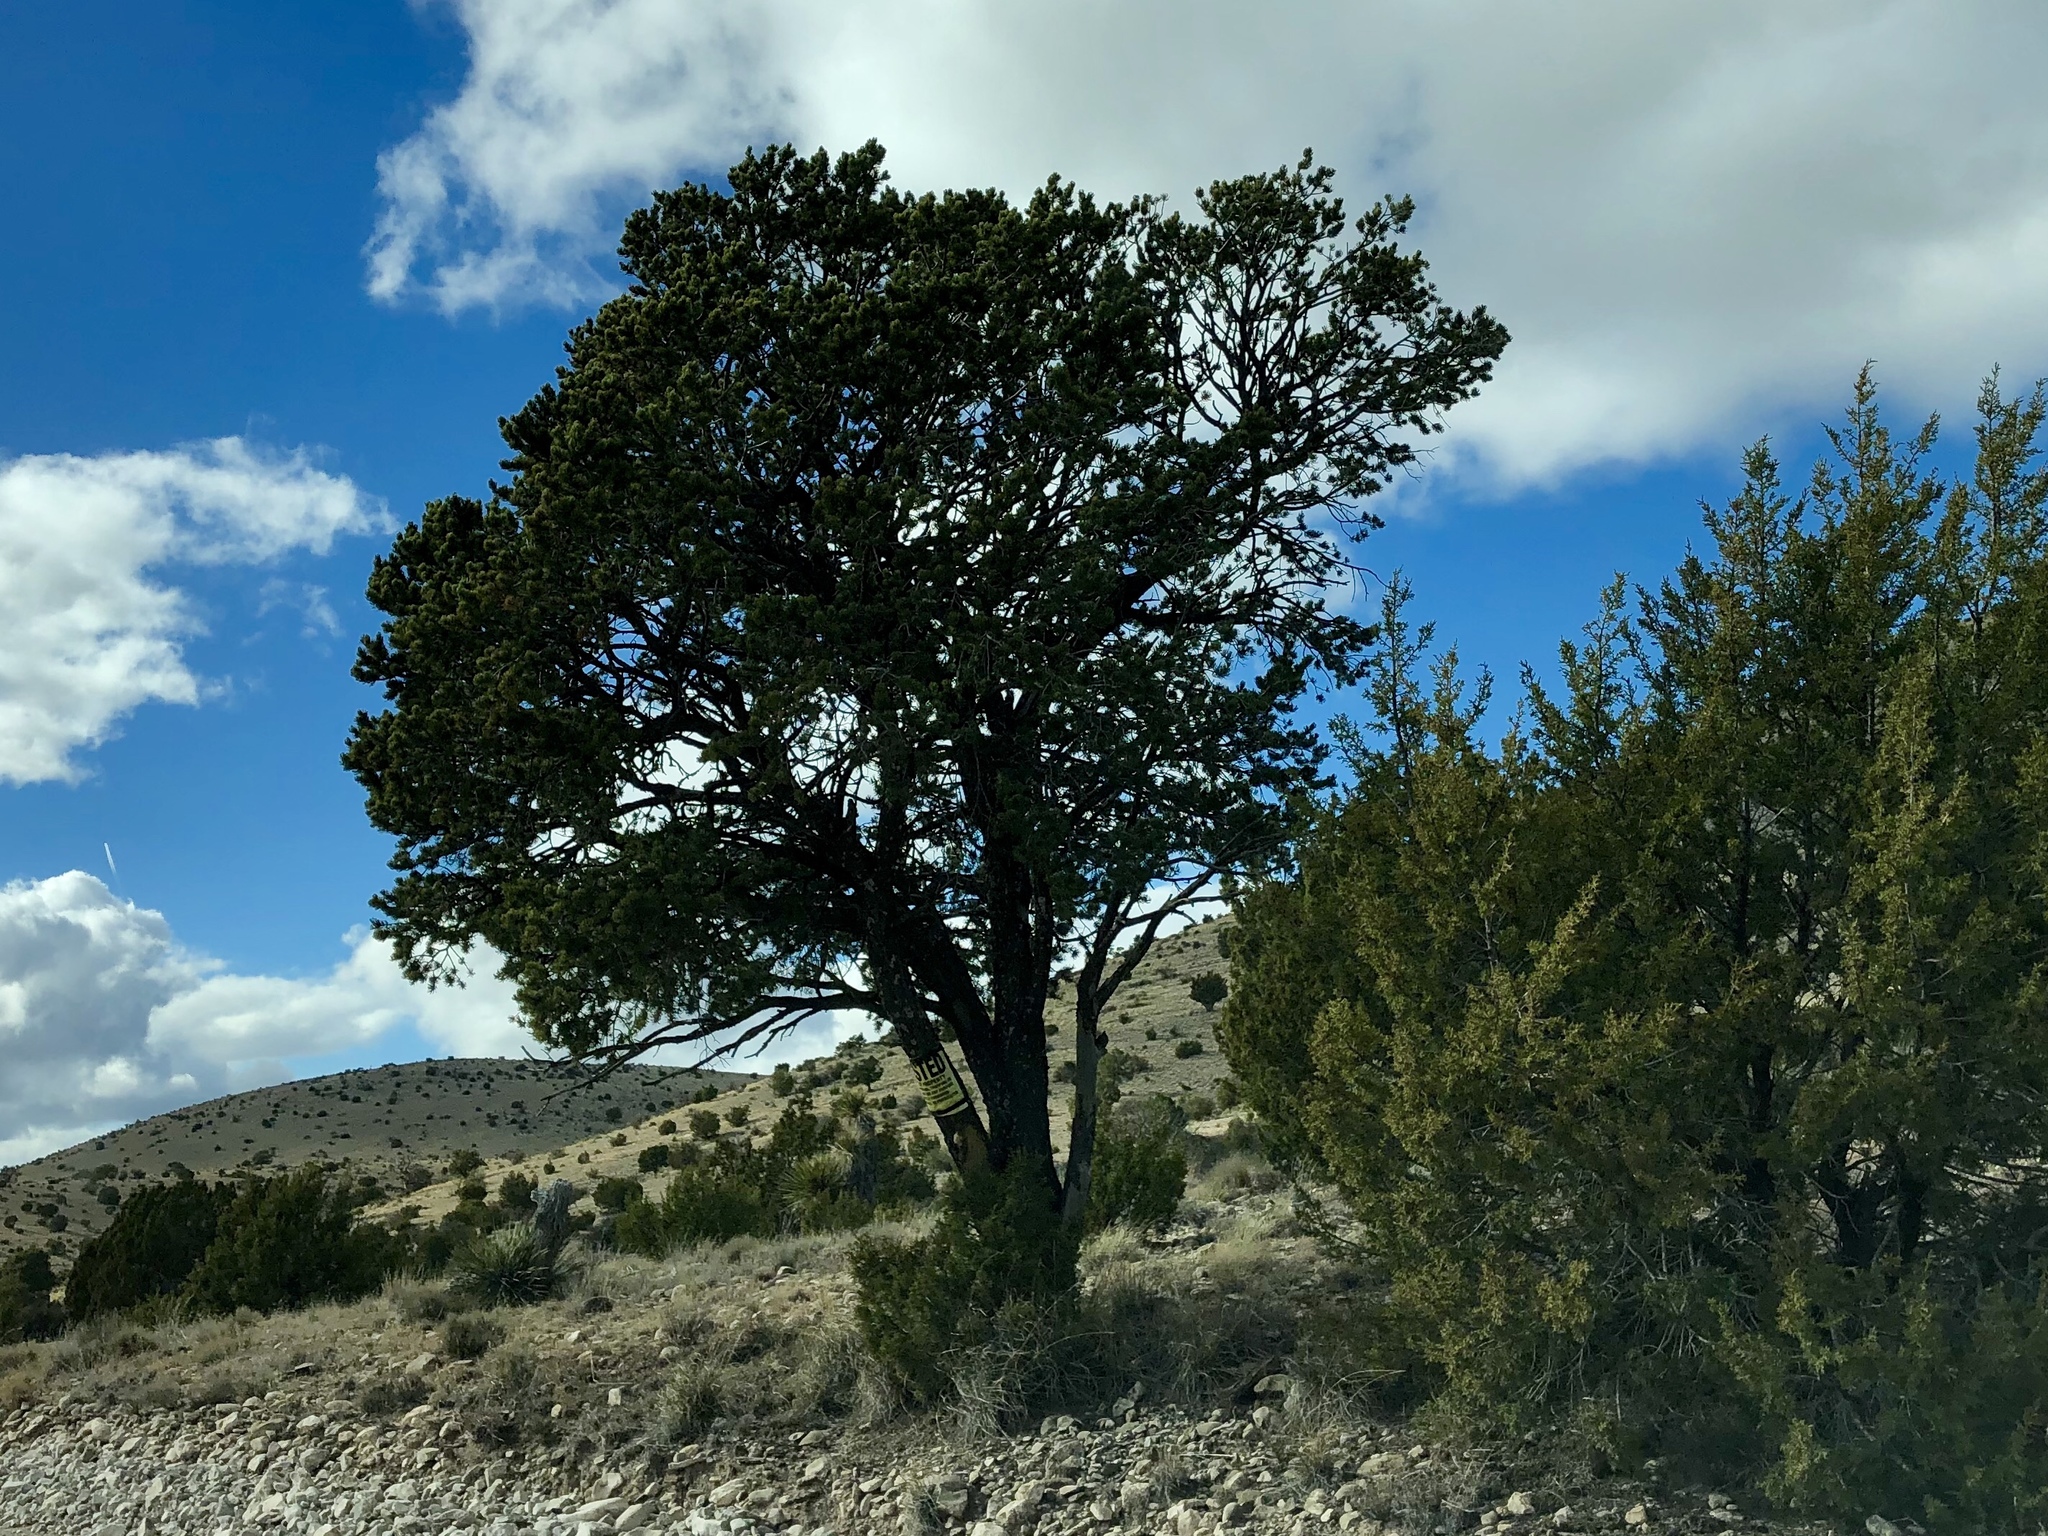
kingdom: Plantae
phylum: Tracheophyta
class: Pinopsida
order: Pinales
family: Pinaceae
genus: Pinus
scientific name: Pinus edulis
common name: Colorado pinyon
